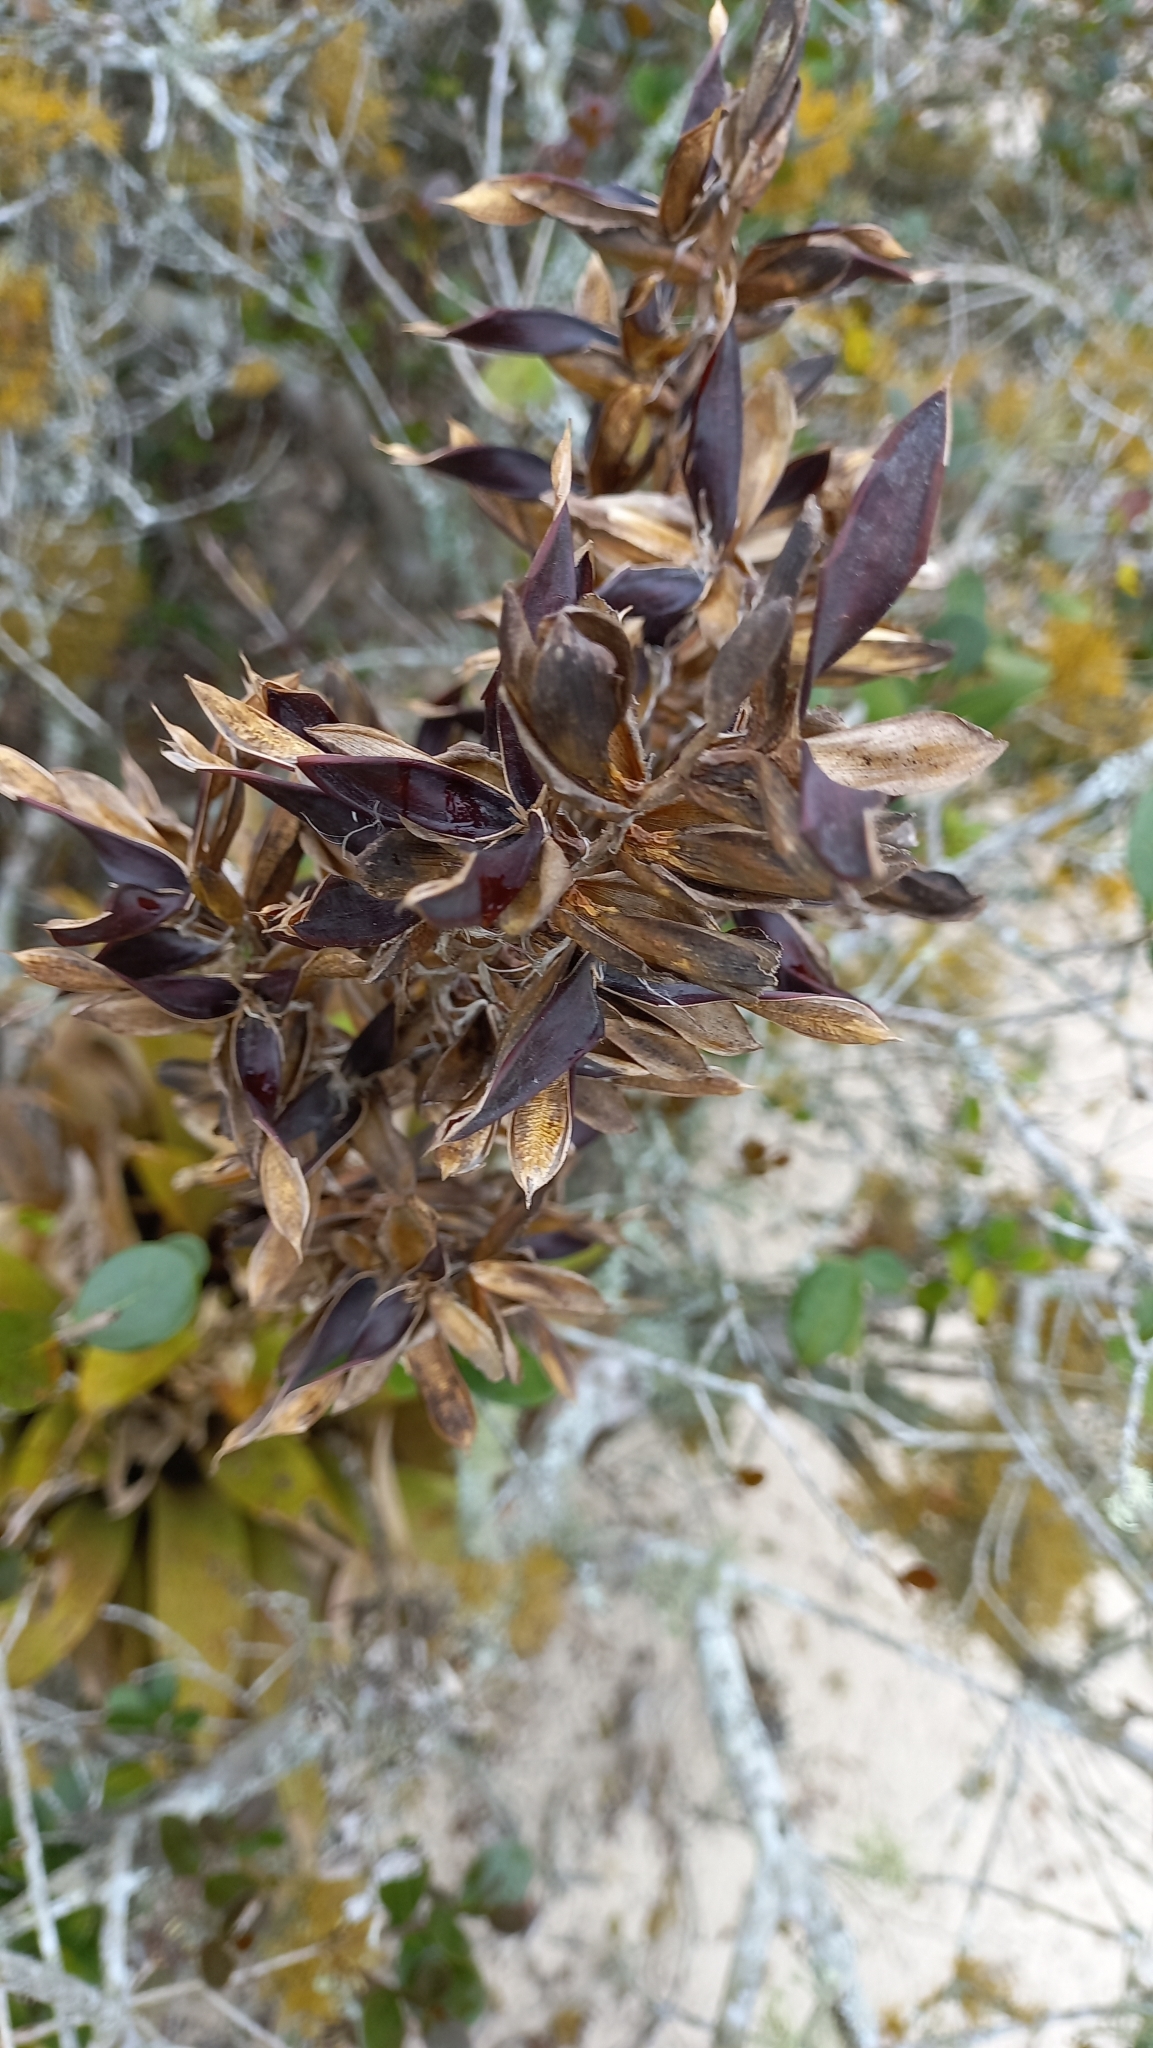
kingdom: Plantae
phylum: Tracheophyta
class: Liliopsida
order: Poales
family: Bromeliaceae
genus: Vriesea
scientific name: Vriesea friburgensis
